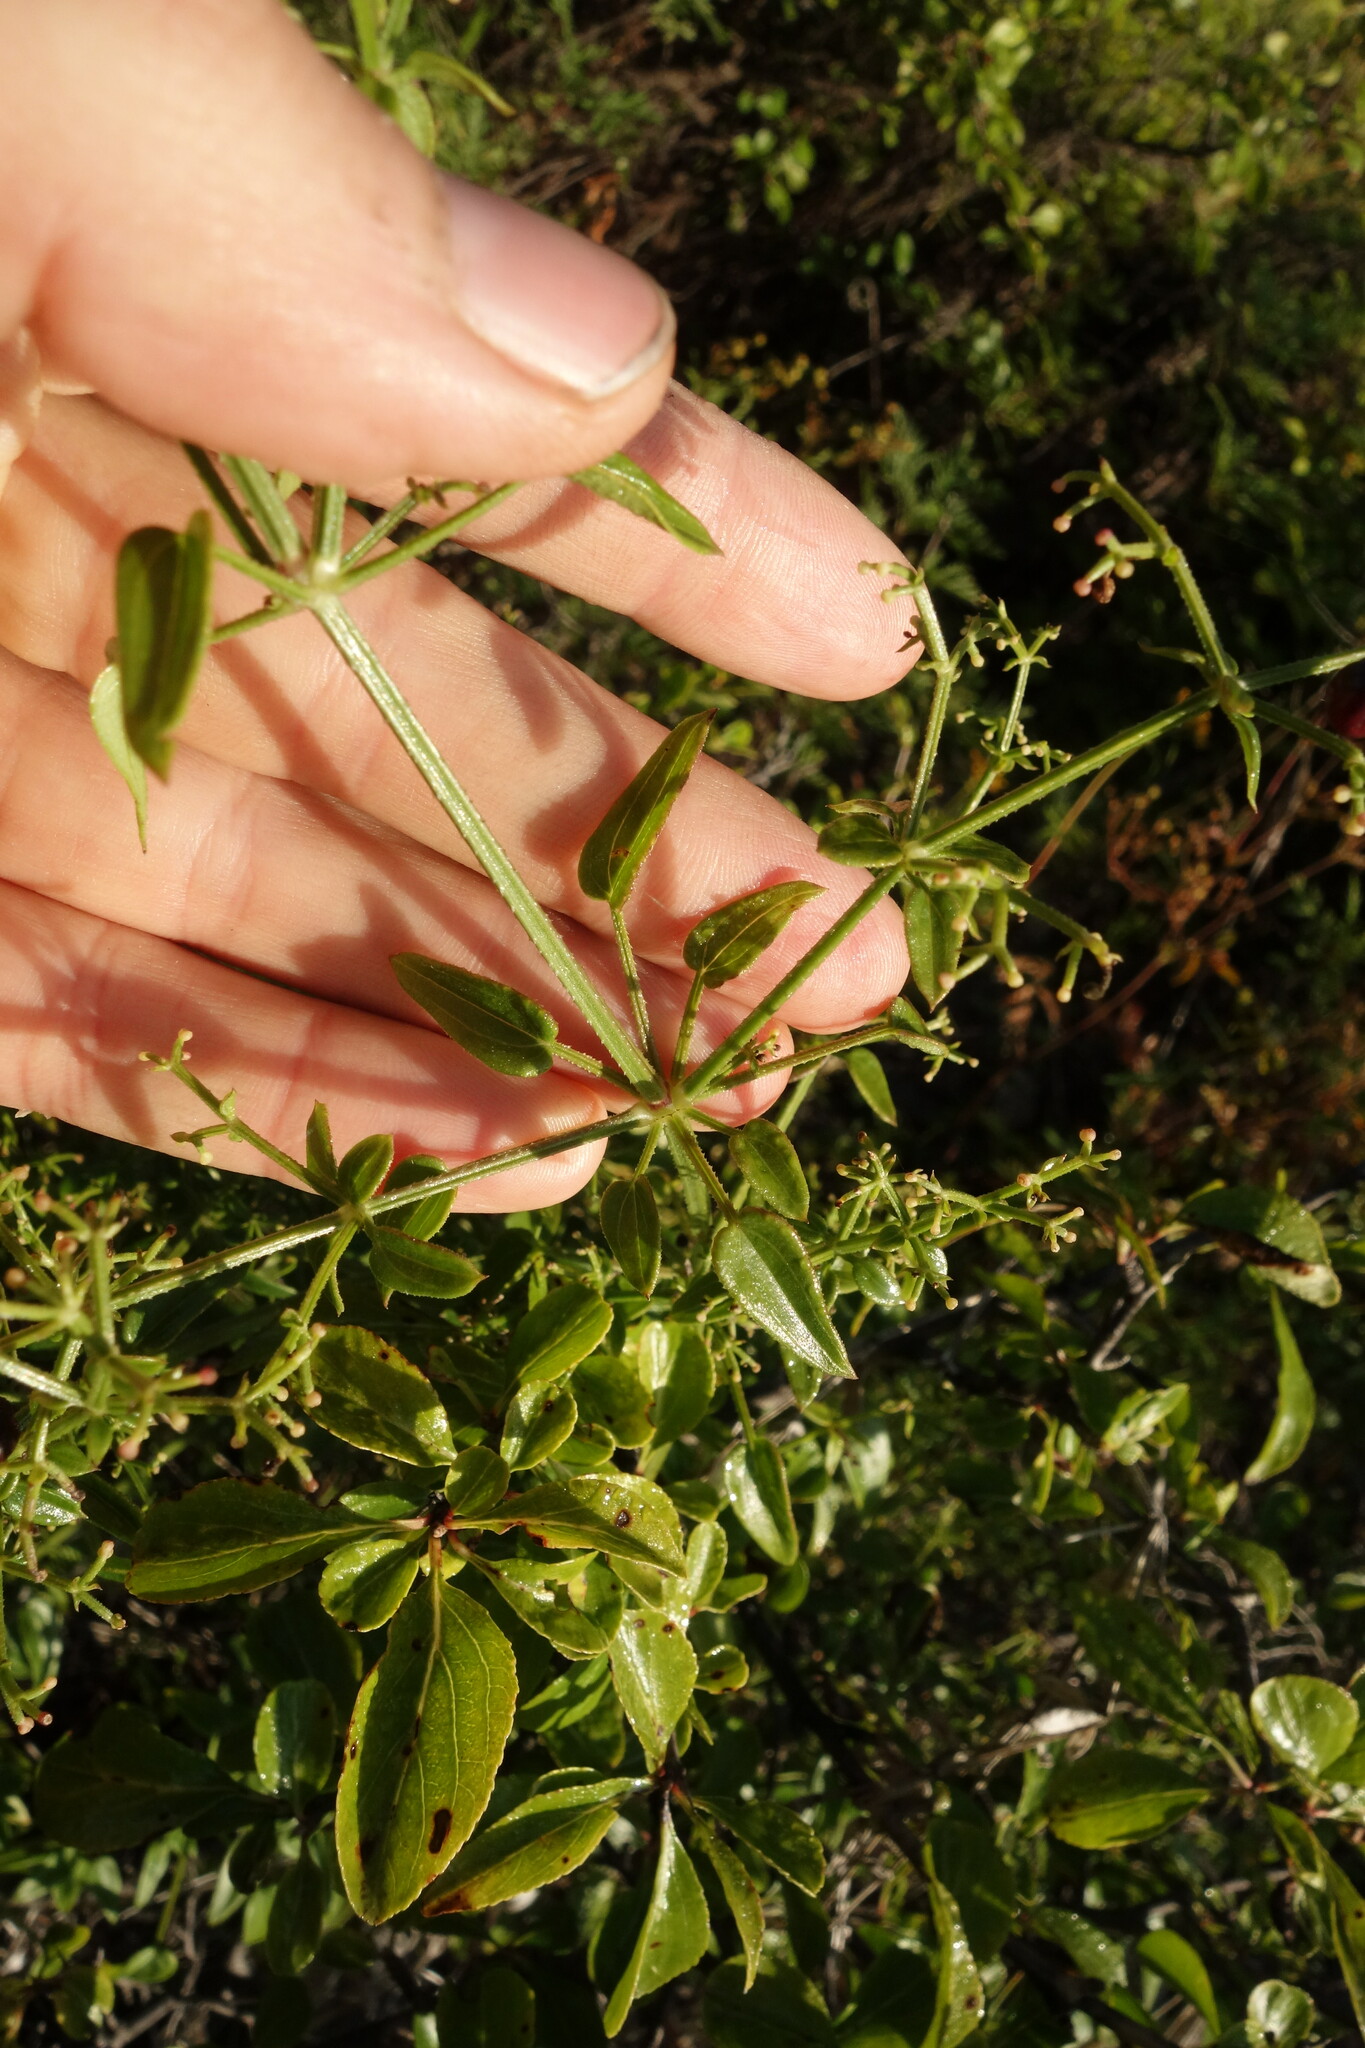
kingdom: Plantae
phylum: Tracheophyta
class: Magnoliopsida
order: Gentianales
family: Rubiaceae
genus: Rubia
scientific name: Rubia cordifolia
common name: Indian madder
